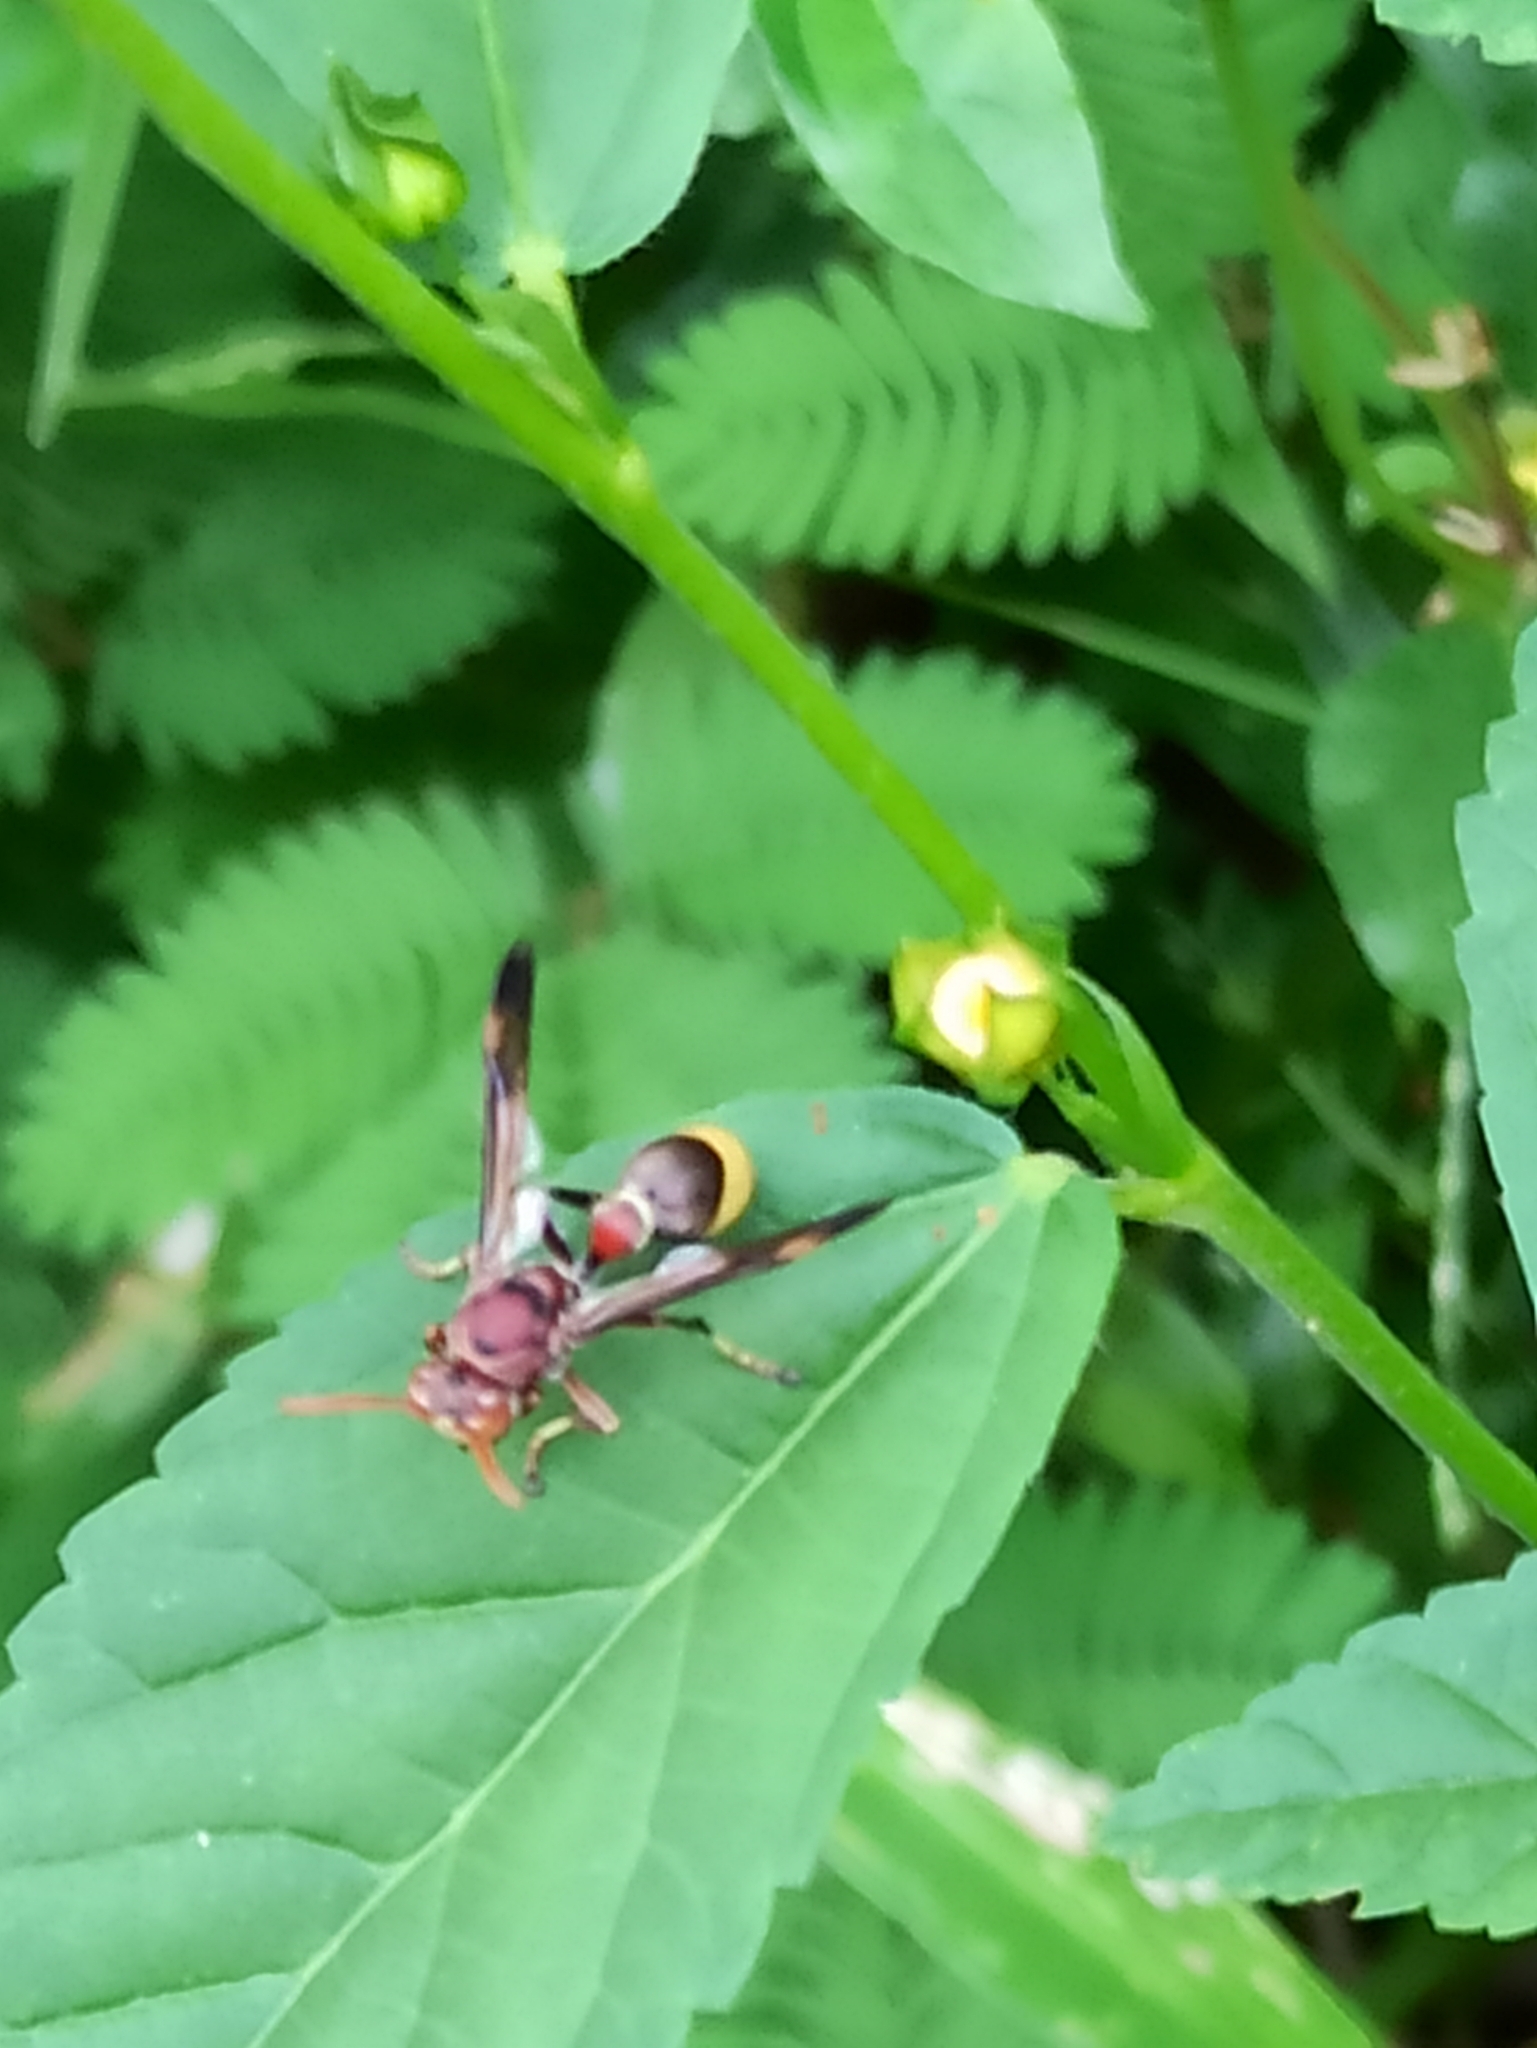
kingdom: Animalia
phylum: Arthropoda
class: Insecta
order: Hymenoptera
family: Vespidae
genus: Ropalidia
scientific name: Ropalidia
